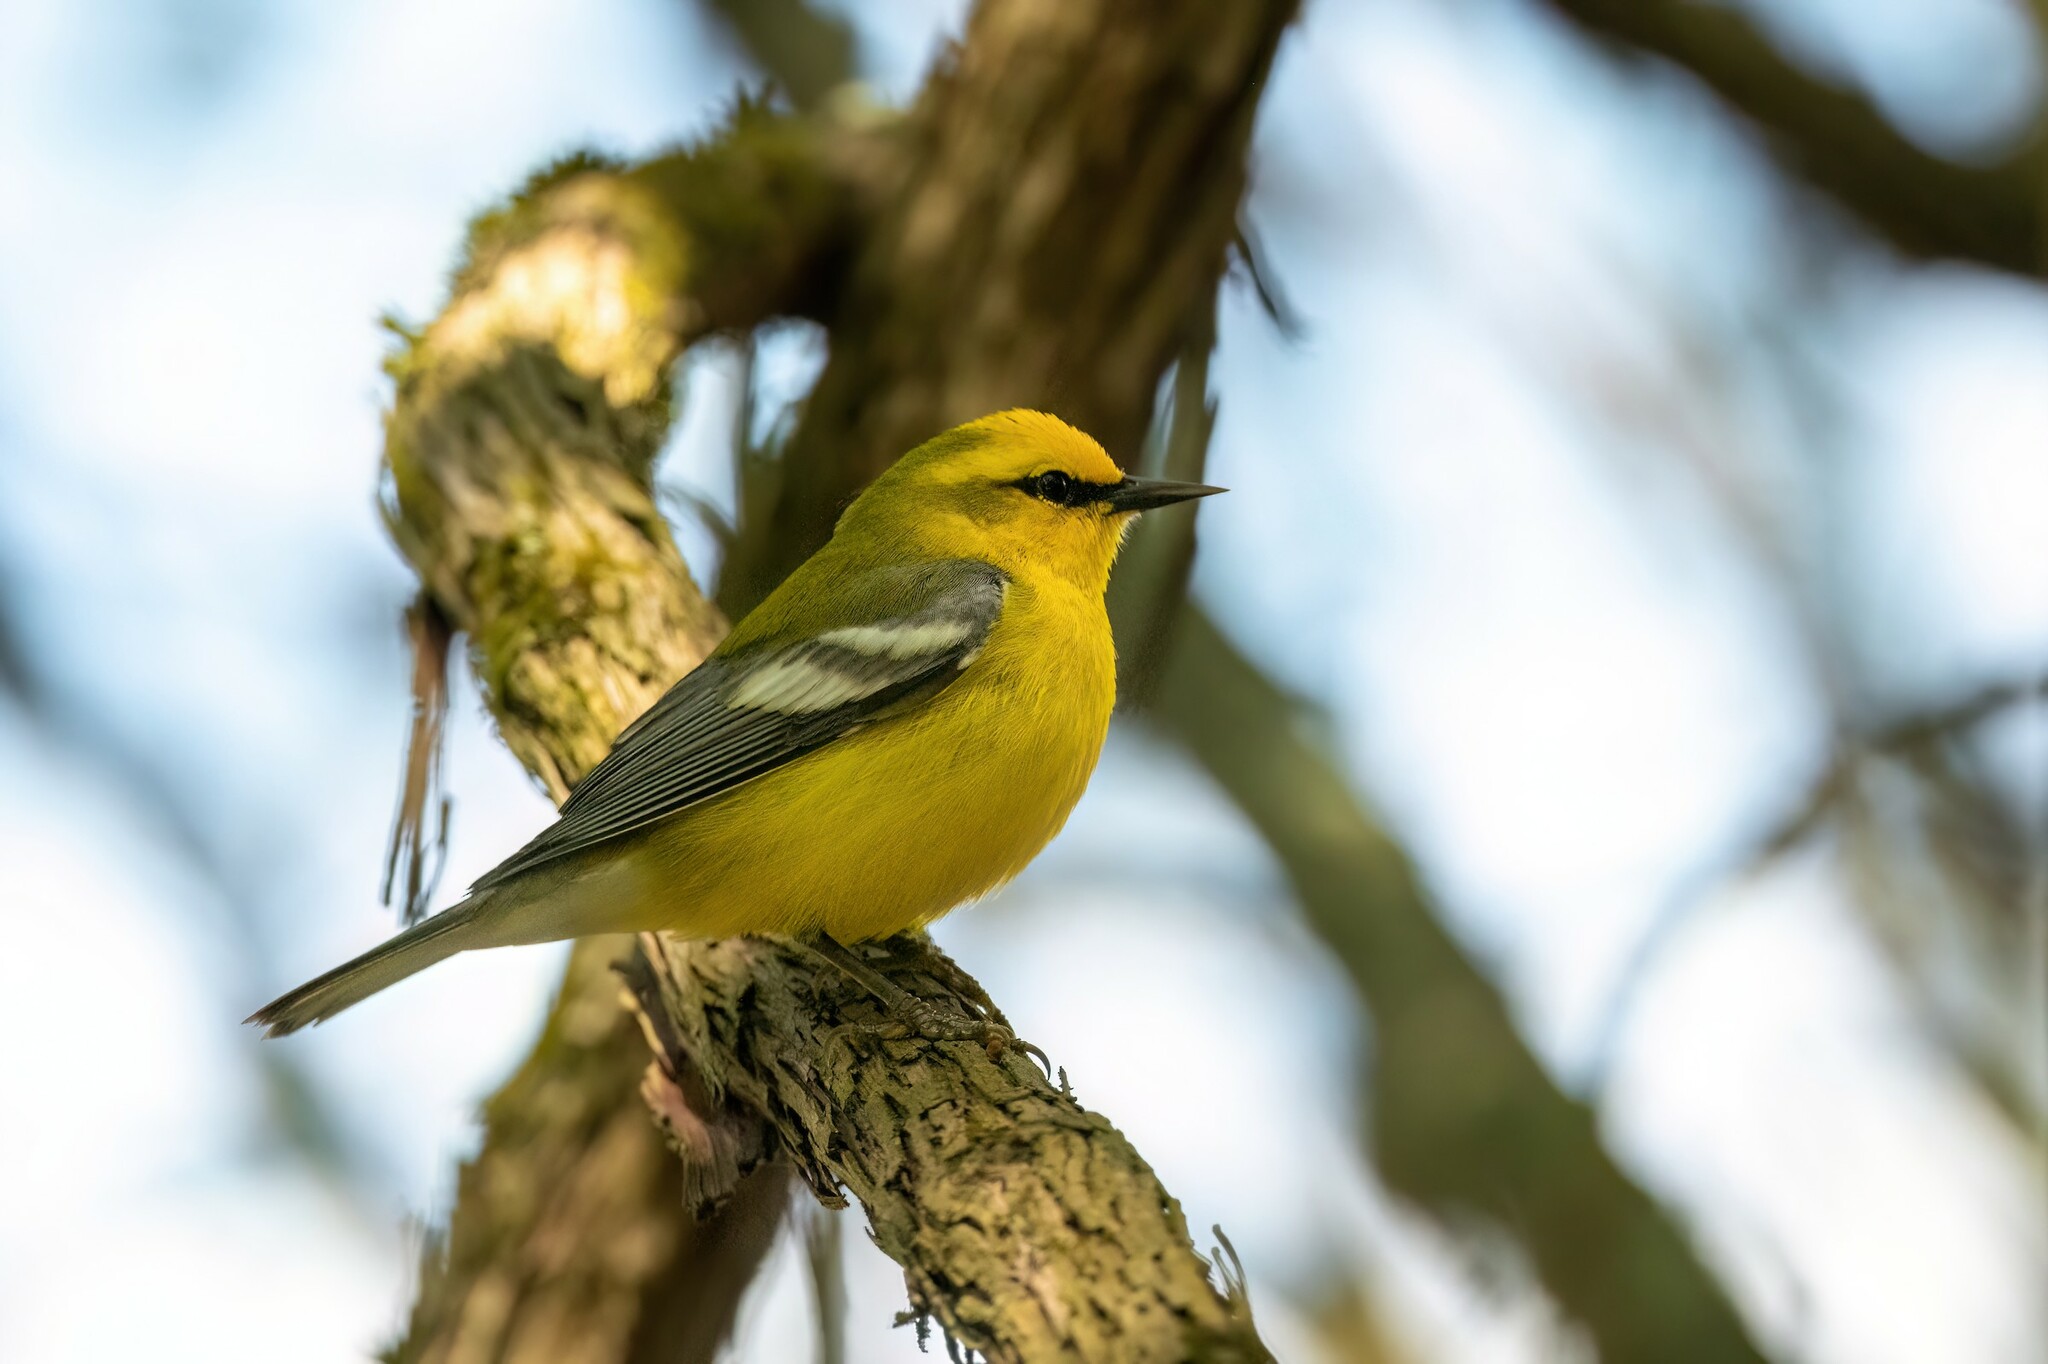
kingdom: Animalia
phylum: Chordata
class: Aves
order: Passeriformes
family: Parulidae
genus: Vermivora
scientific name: Vermivora cyanoptera
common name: Blue-winged warbler
